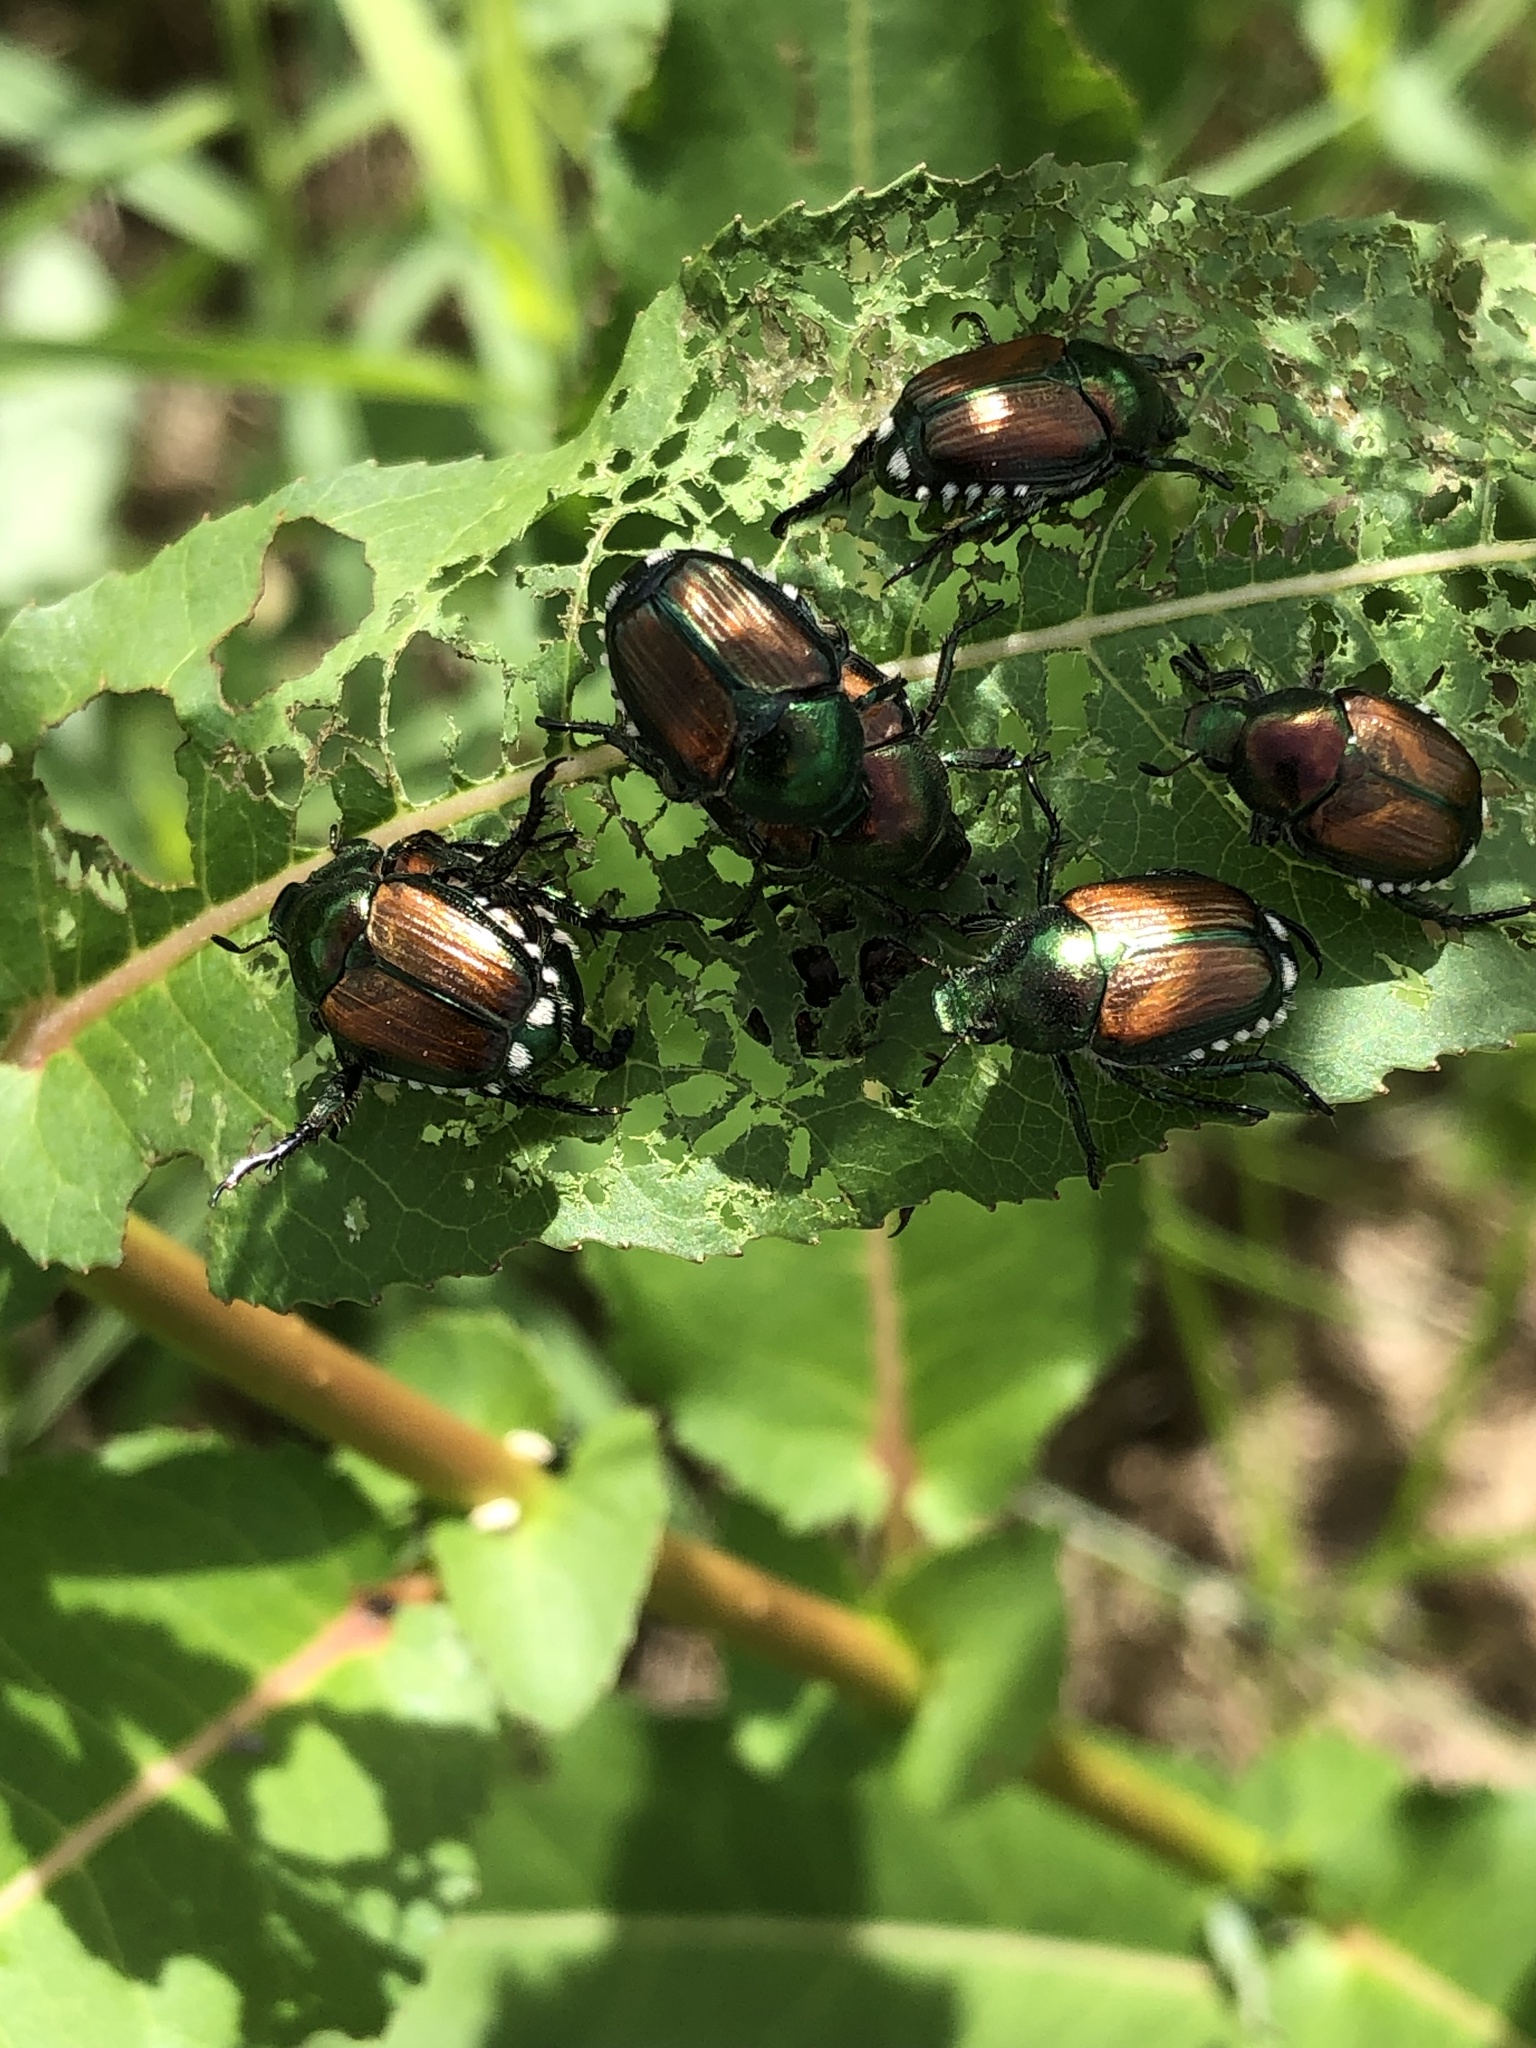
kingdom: Animalia
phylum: Arthropoda
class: Insecta
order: Coleoptera
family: Scarabaeidae
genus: Popillia
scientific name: Popillia japonica
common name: Japanese beetle
